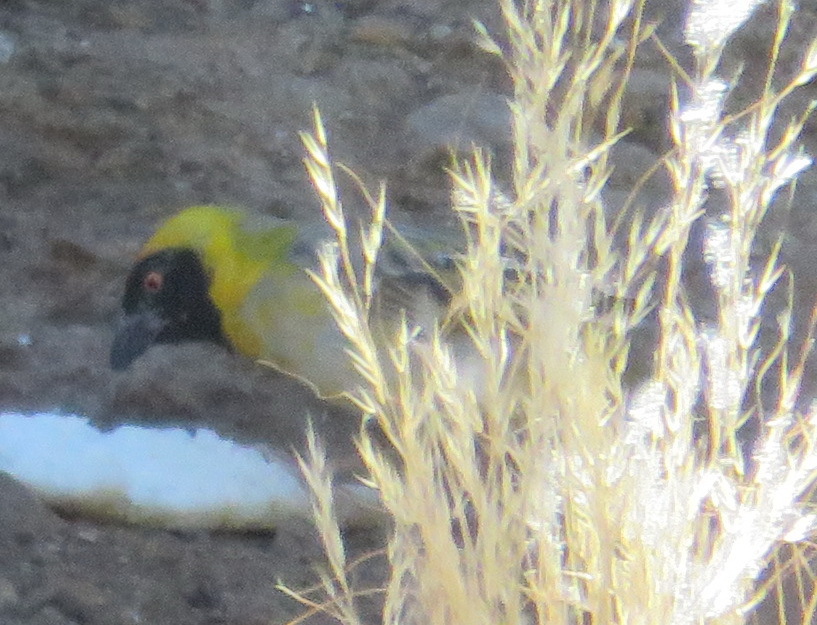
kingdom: Animalia
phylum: Chordata
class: Aves
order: Passeriformes
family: Ploceidae
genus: Ploceus
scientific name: Ploceus velatus
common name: Southern masked weaver
